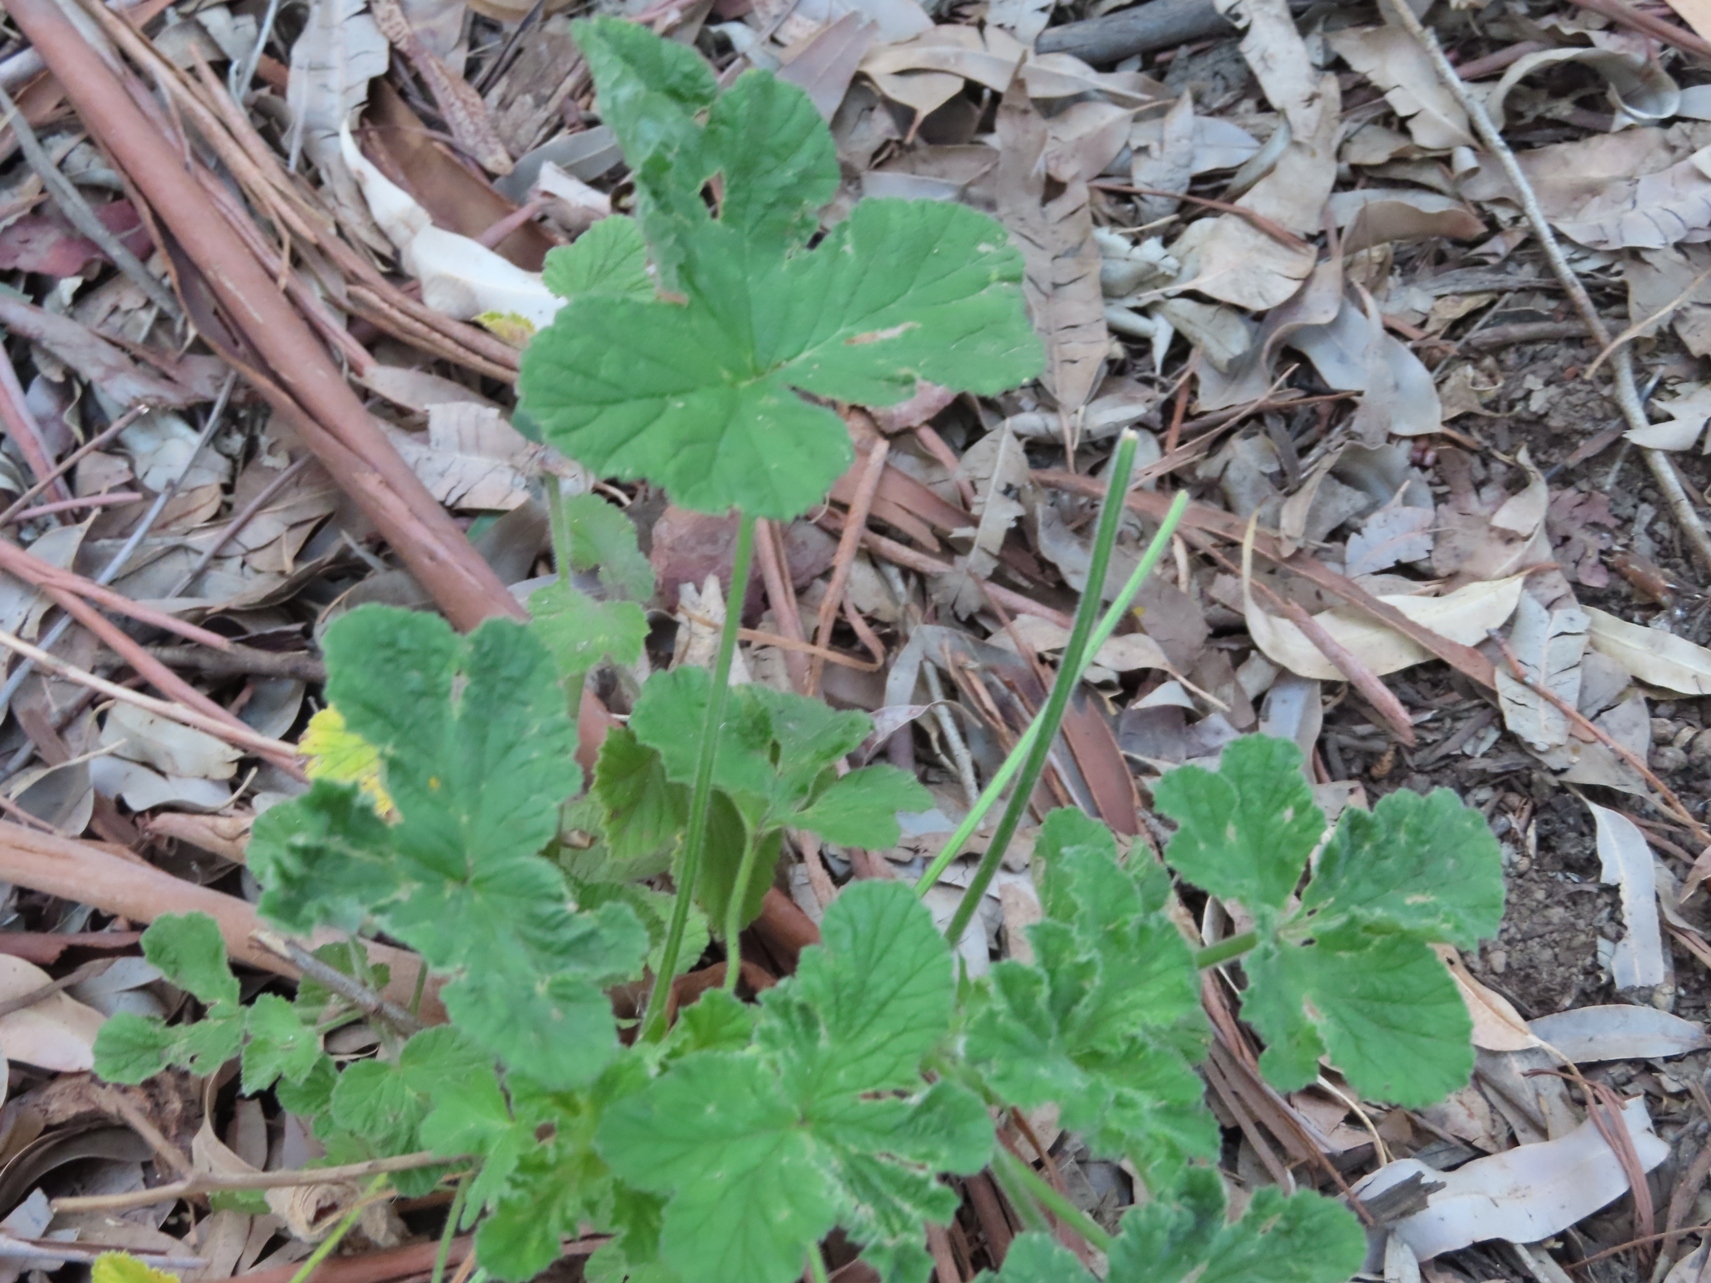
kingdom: Plantae
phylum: Tracheophyta
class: Magnoliopsida
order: Geraniales
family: Geraniaceae
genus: Pelargonium
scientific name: Pelargonium vitifolium
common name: Grapeleaf geranium
